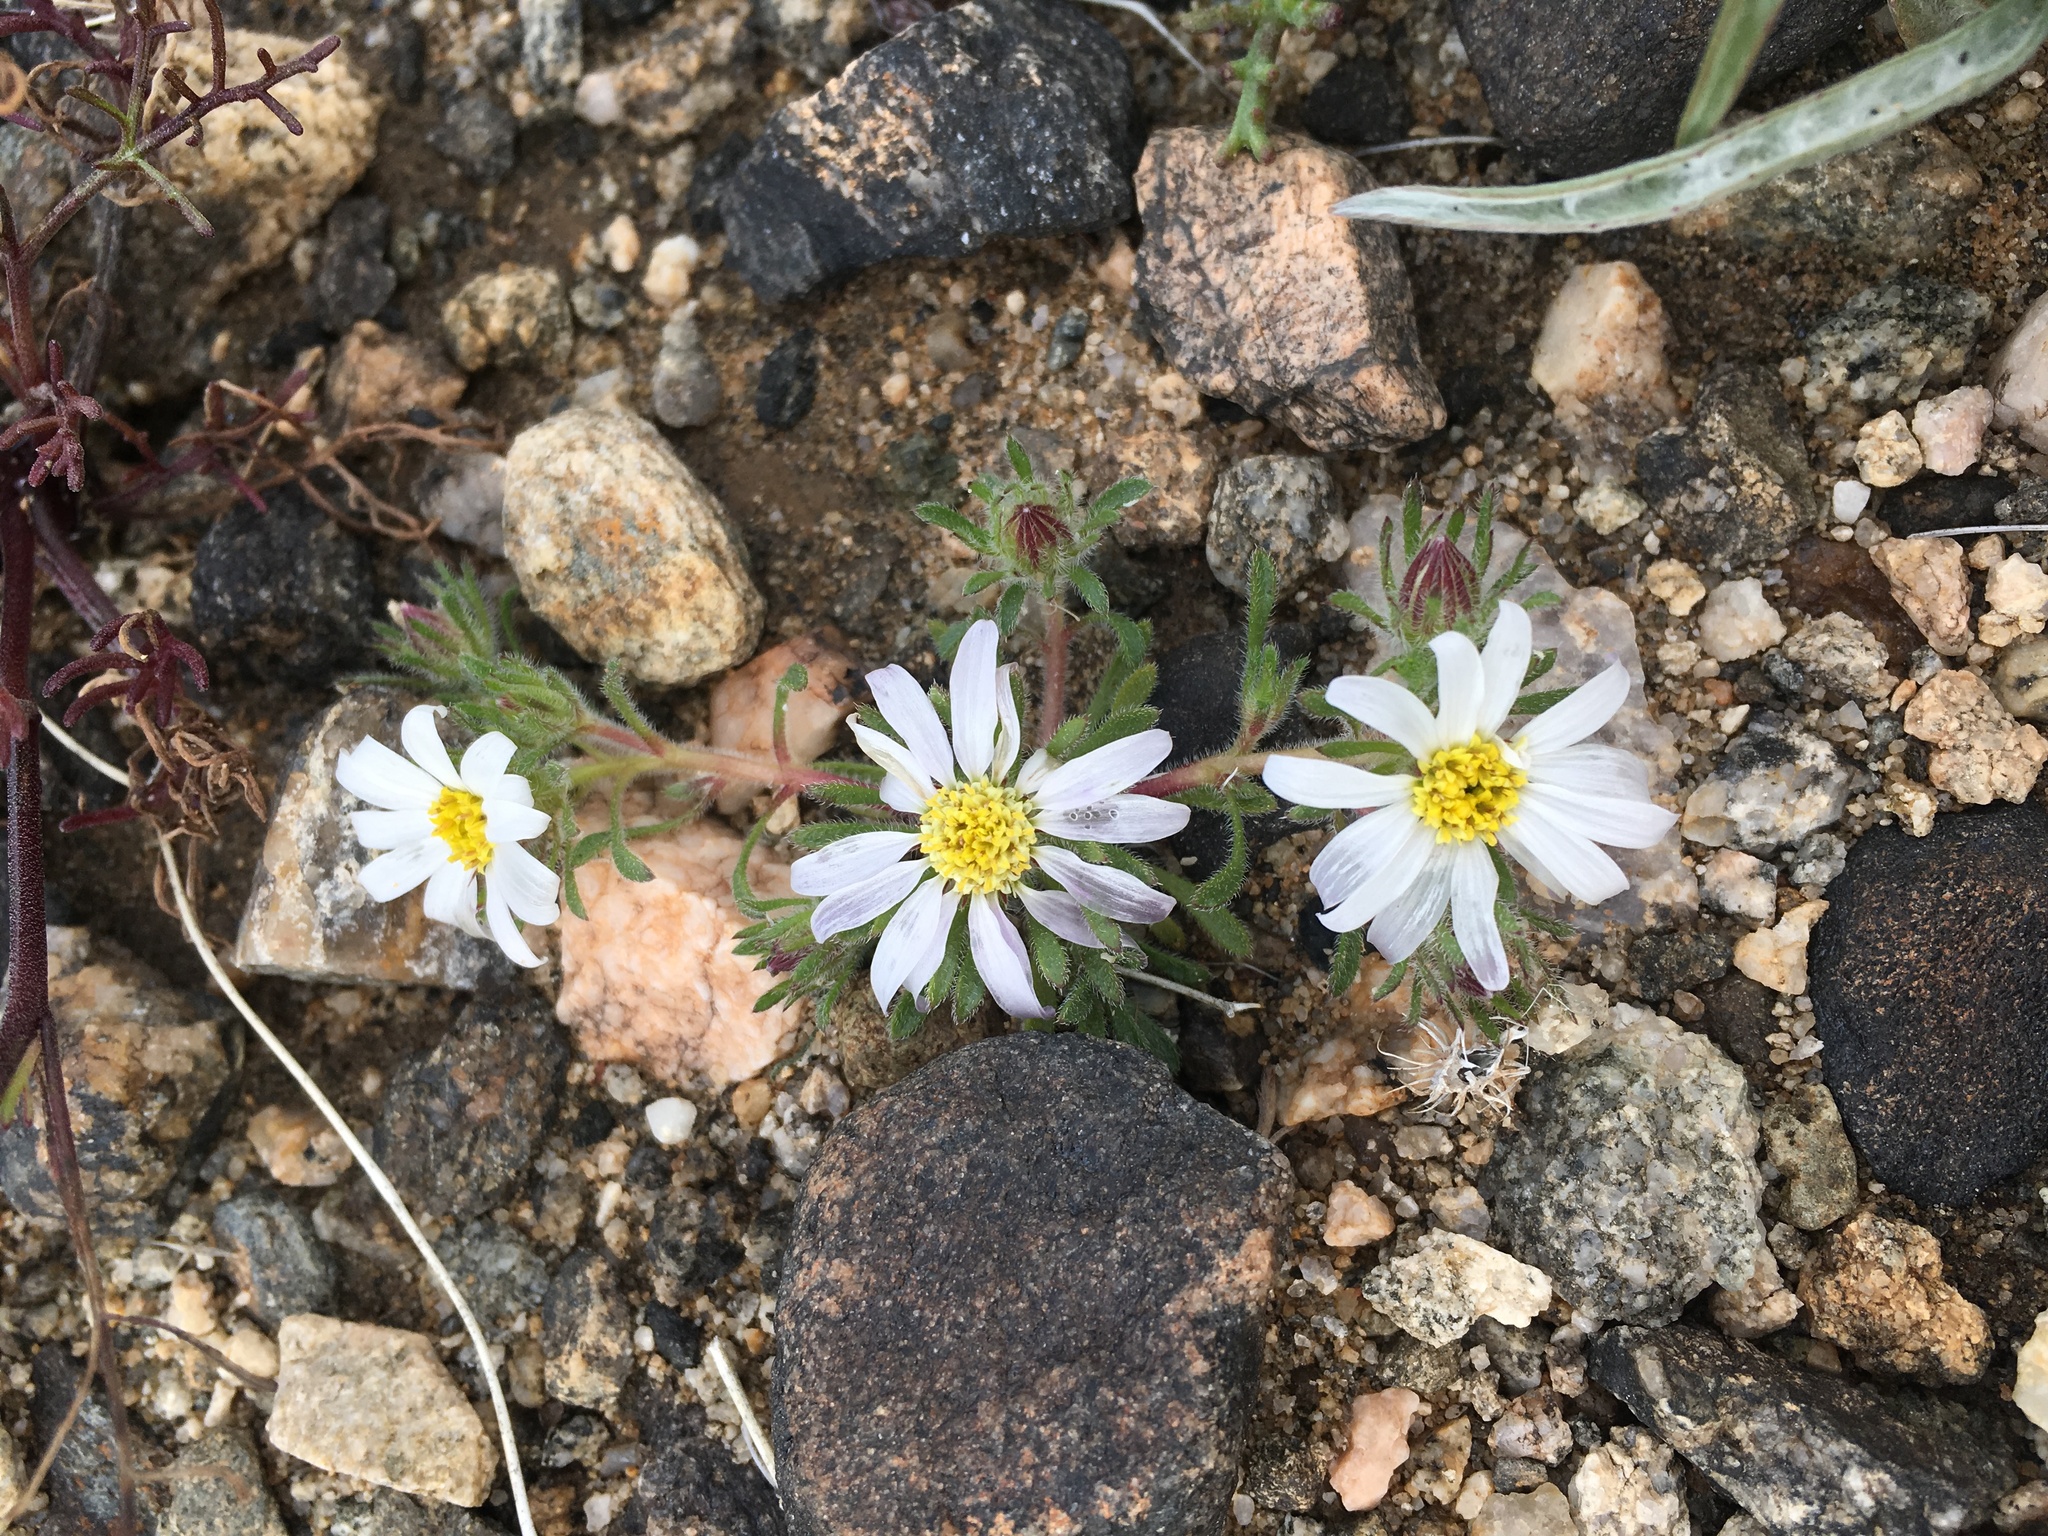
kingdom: Plantae
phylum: Tracheophyta
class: Magnoliopsida
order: Asterales
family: Asteraceae
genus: Monoptilon
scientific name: Monoptilon bellioides
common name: Bristly desertstar
